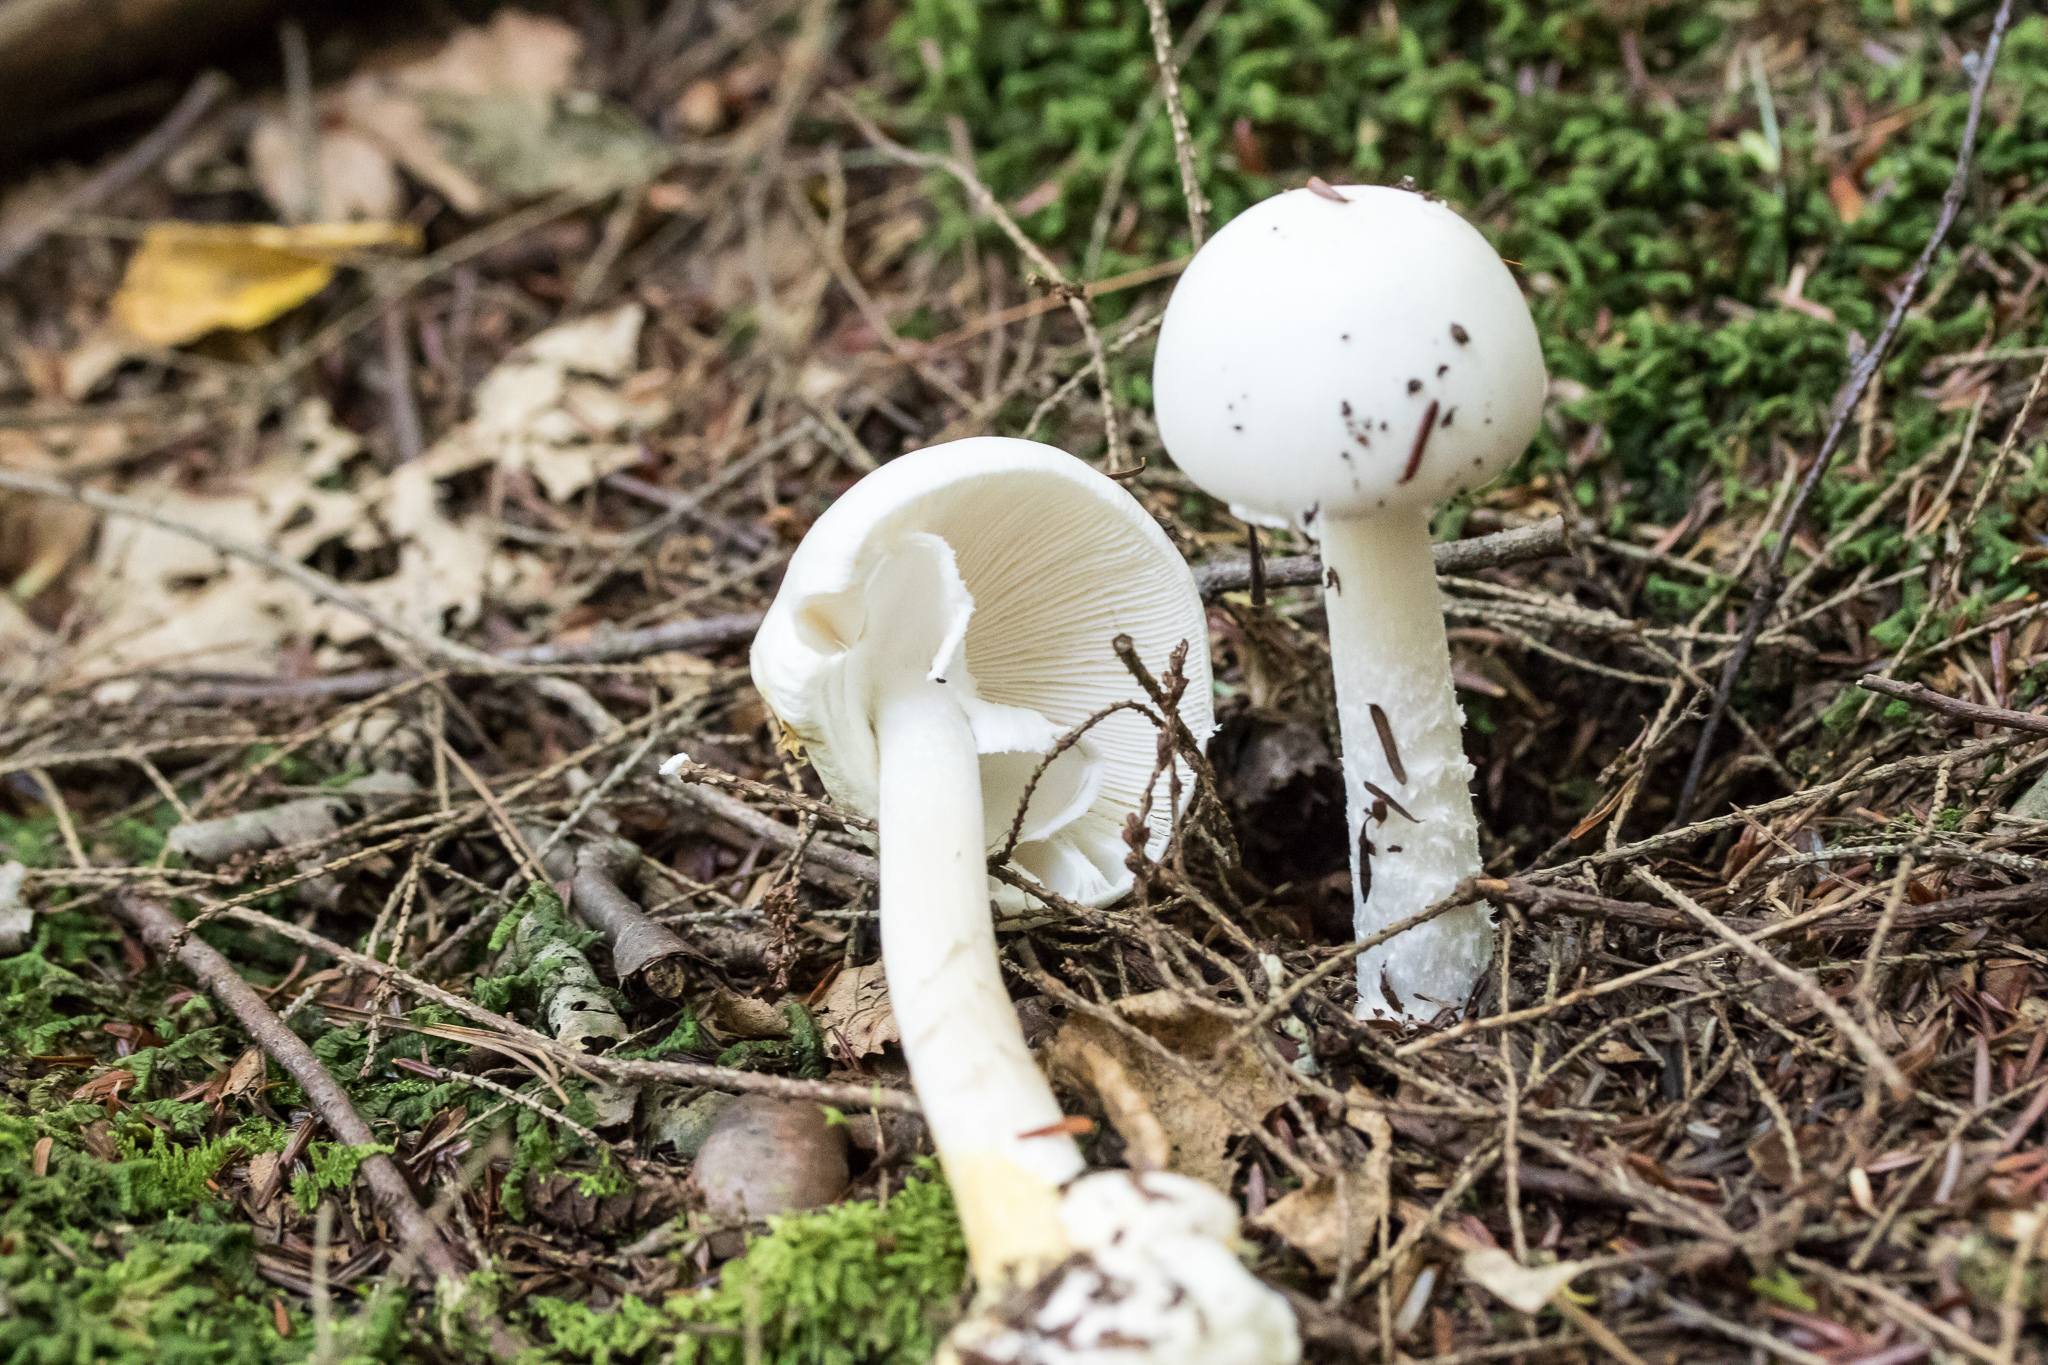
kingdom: Fungi
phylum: Basidiomycota
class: Agaricomycetes
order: Agaricales
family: Amanitaceae
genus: Amanita
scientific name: Amanita bisporigera
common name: Eastern north american destroying angel
